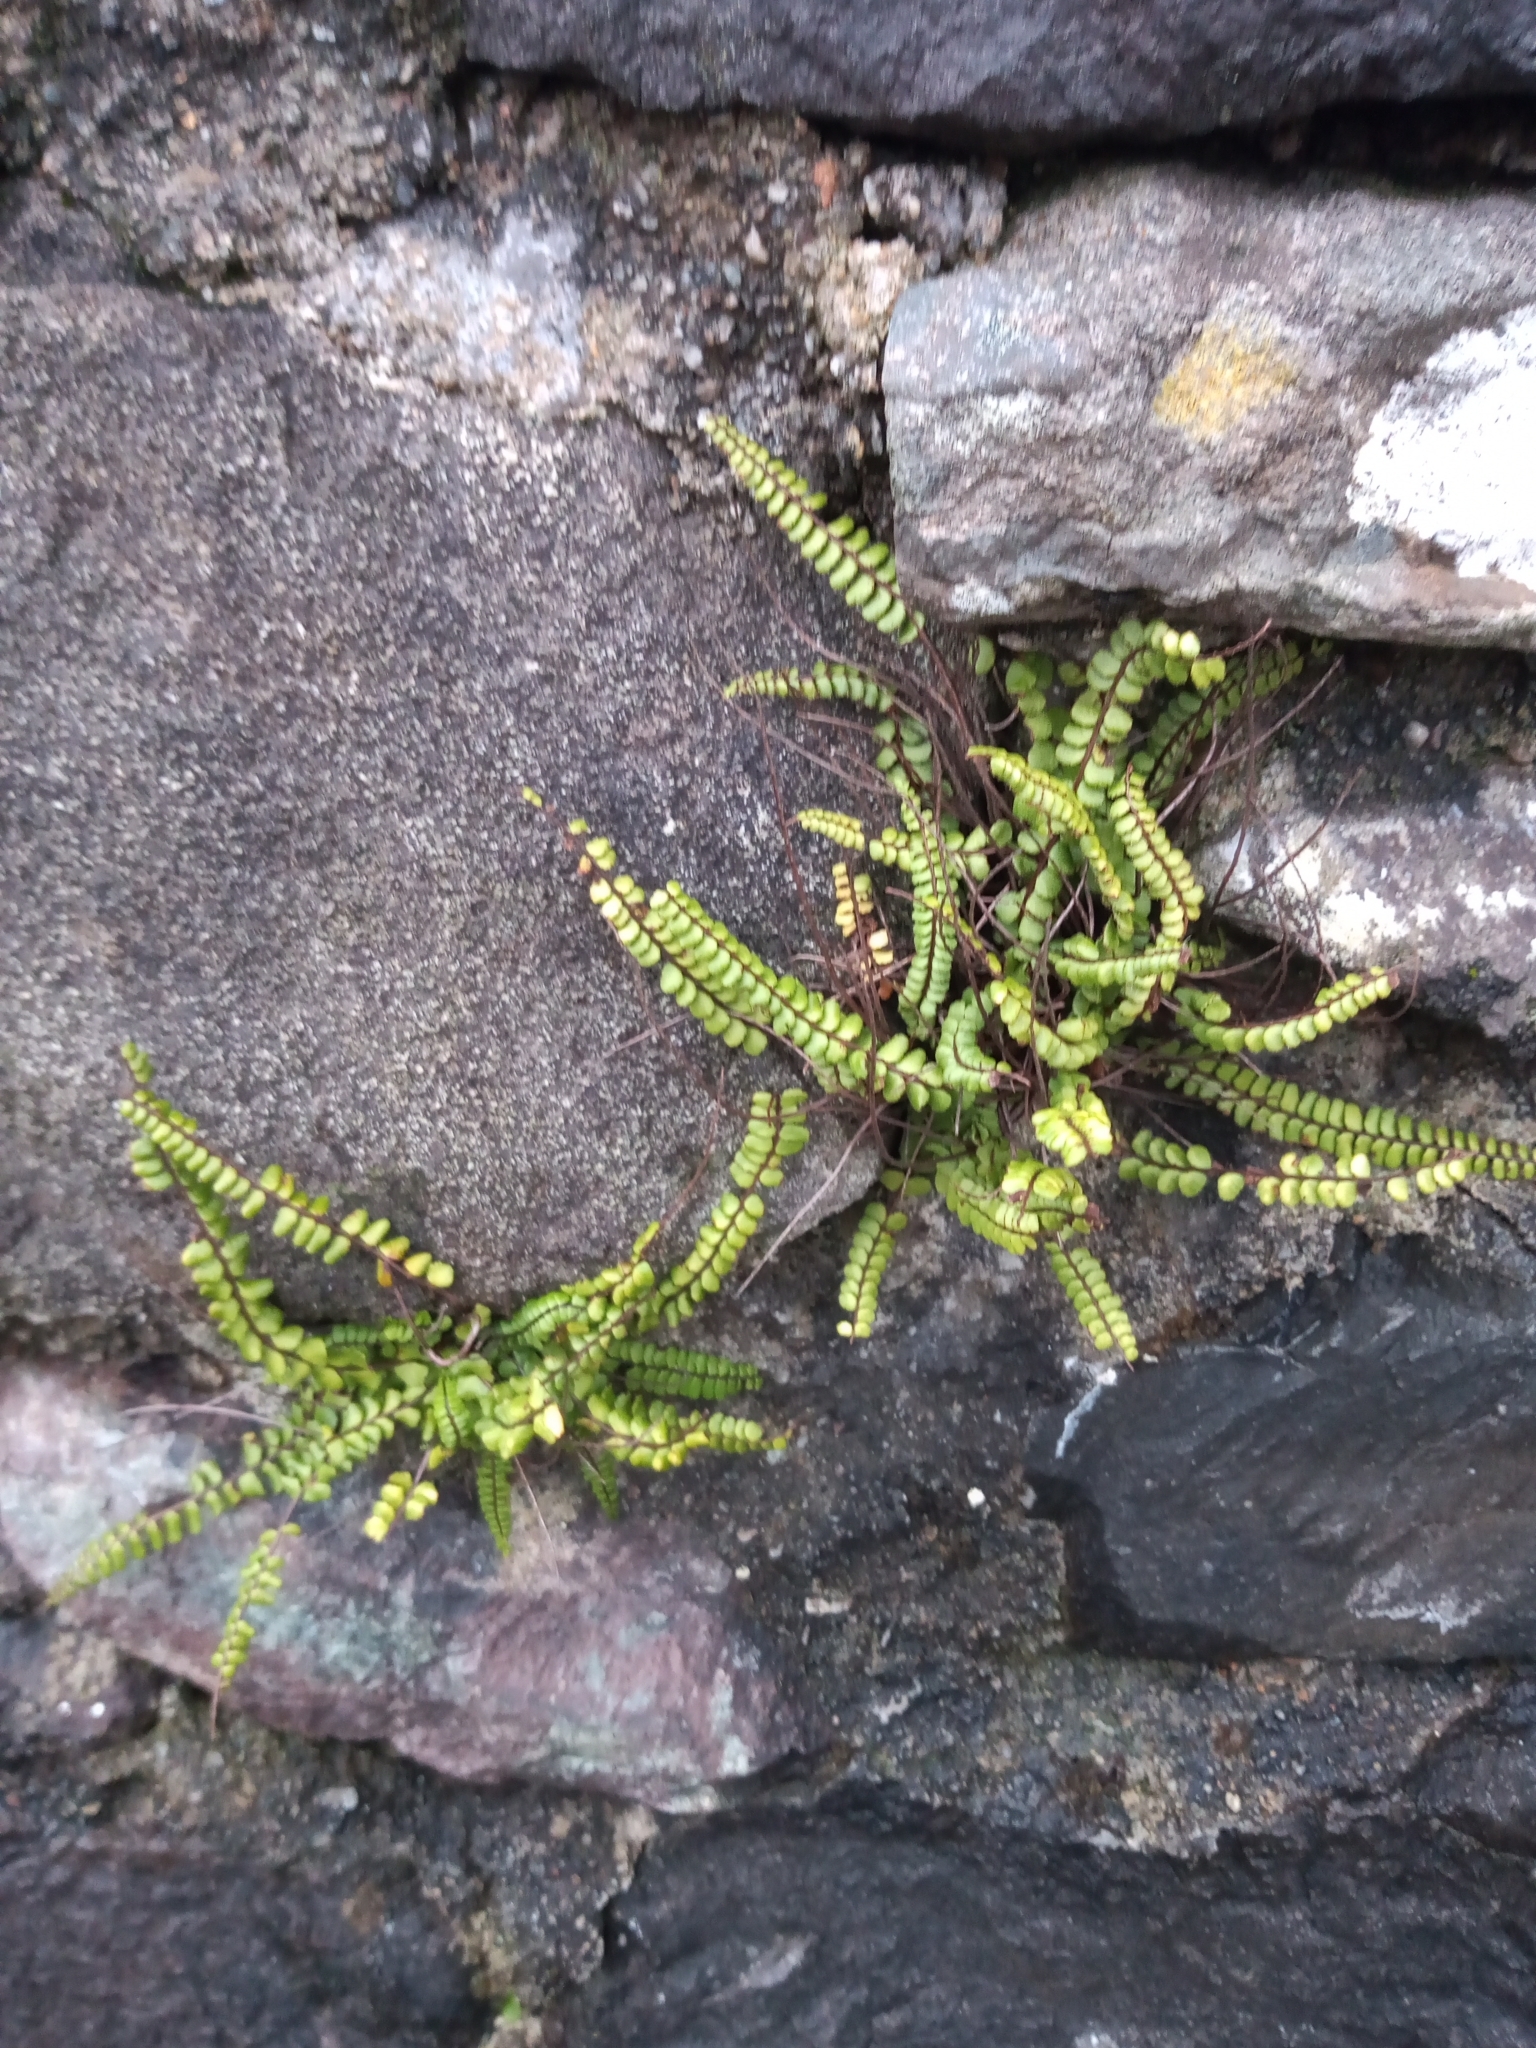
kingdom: Plantae
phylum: Tracheophyta
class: Polypodiopsida
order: Polypodiales
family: Aspleniaceae
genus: Asplenium
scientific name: Asplenium trichomanes
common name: Maidenhair spleenwort
